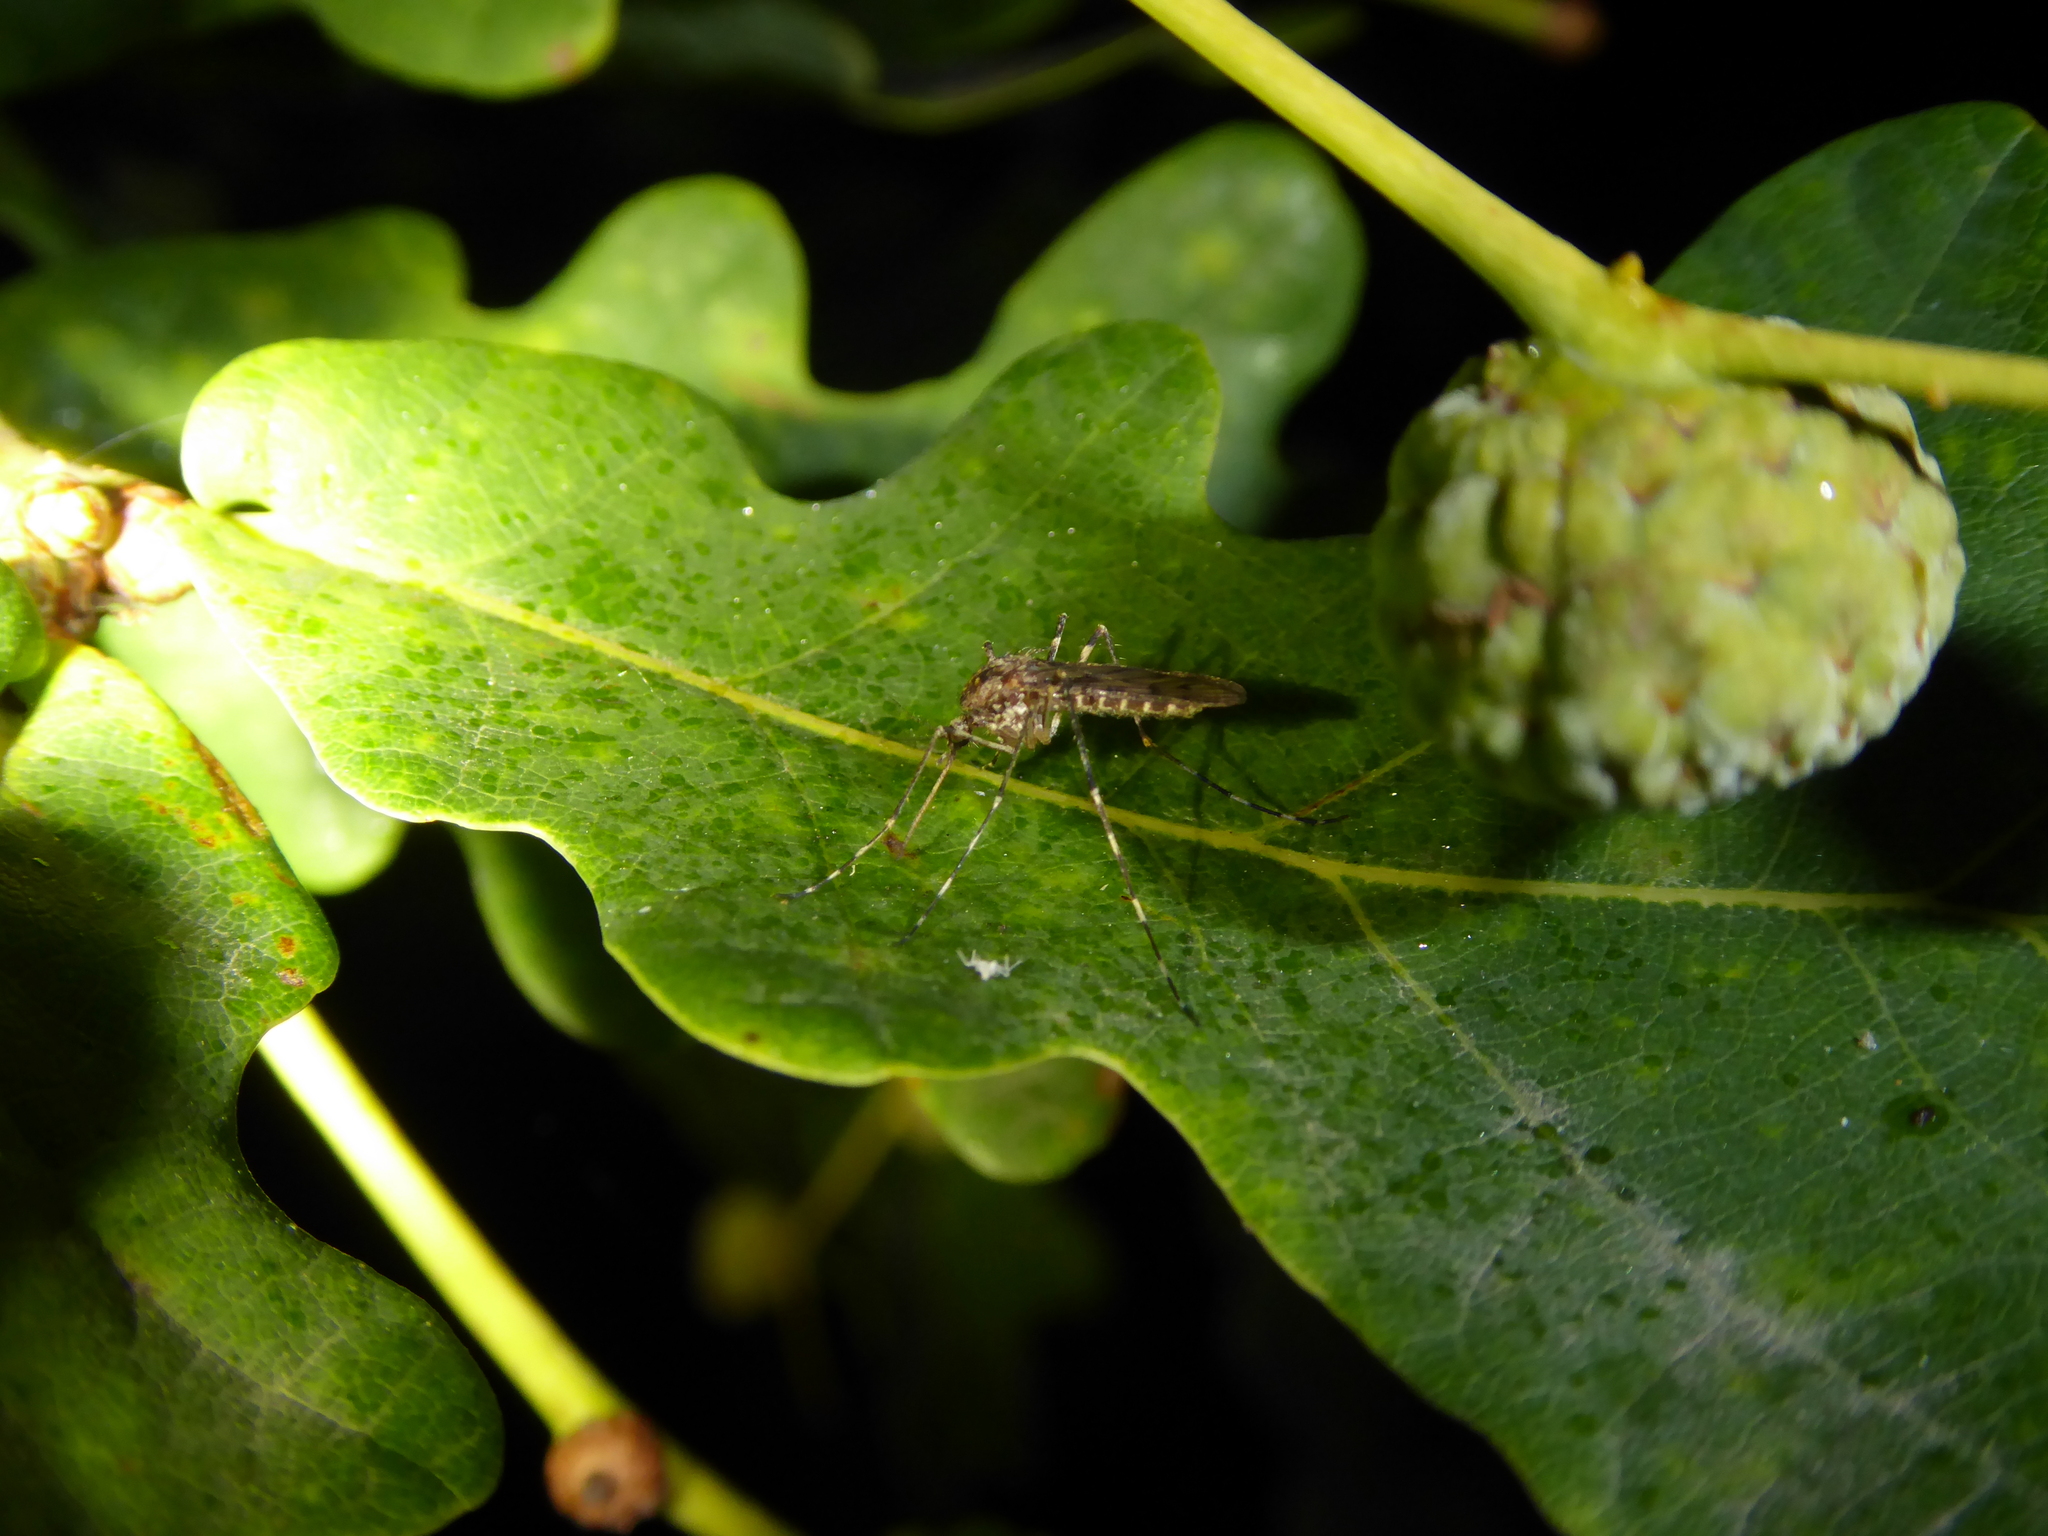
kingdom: Animalia
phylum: Arthropoda
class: Insecta
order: Diptera
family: Culicidae
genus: Culiseta
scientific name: Culiseta annulata
